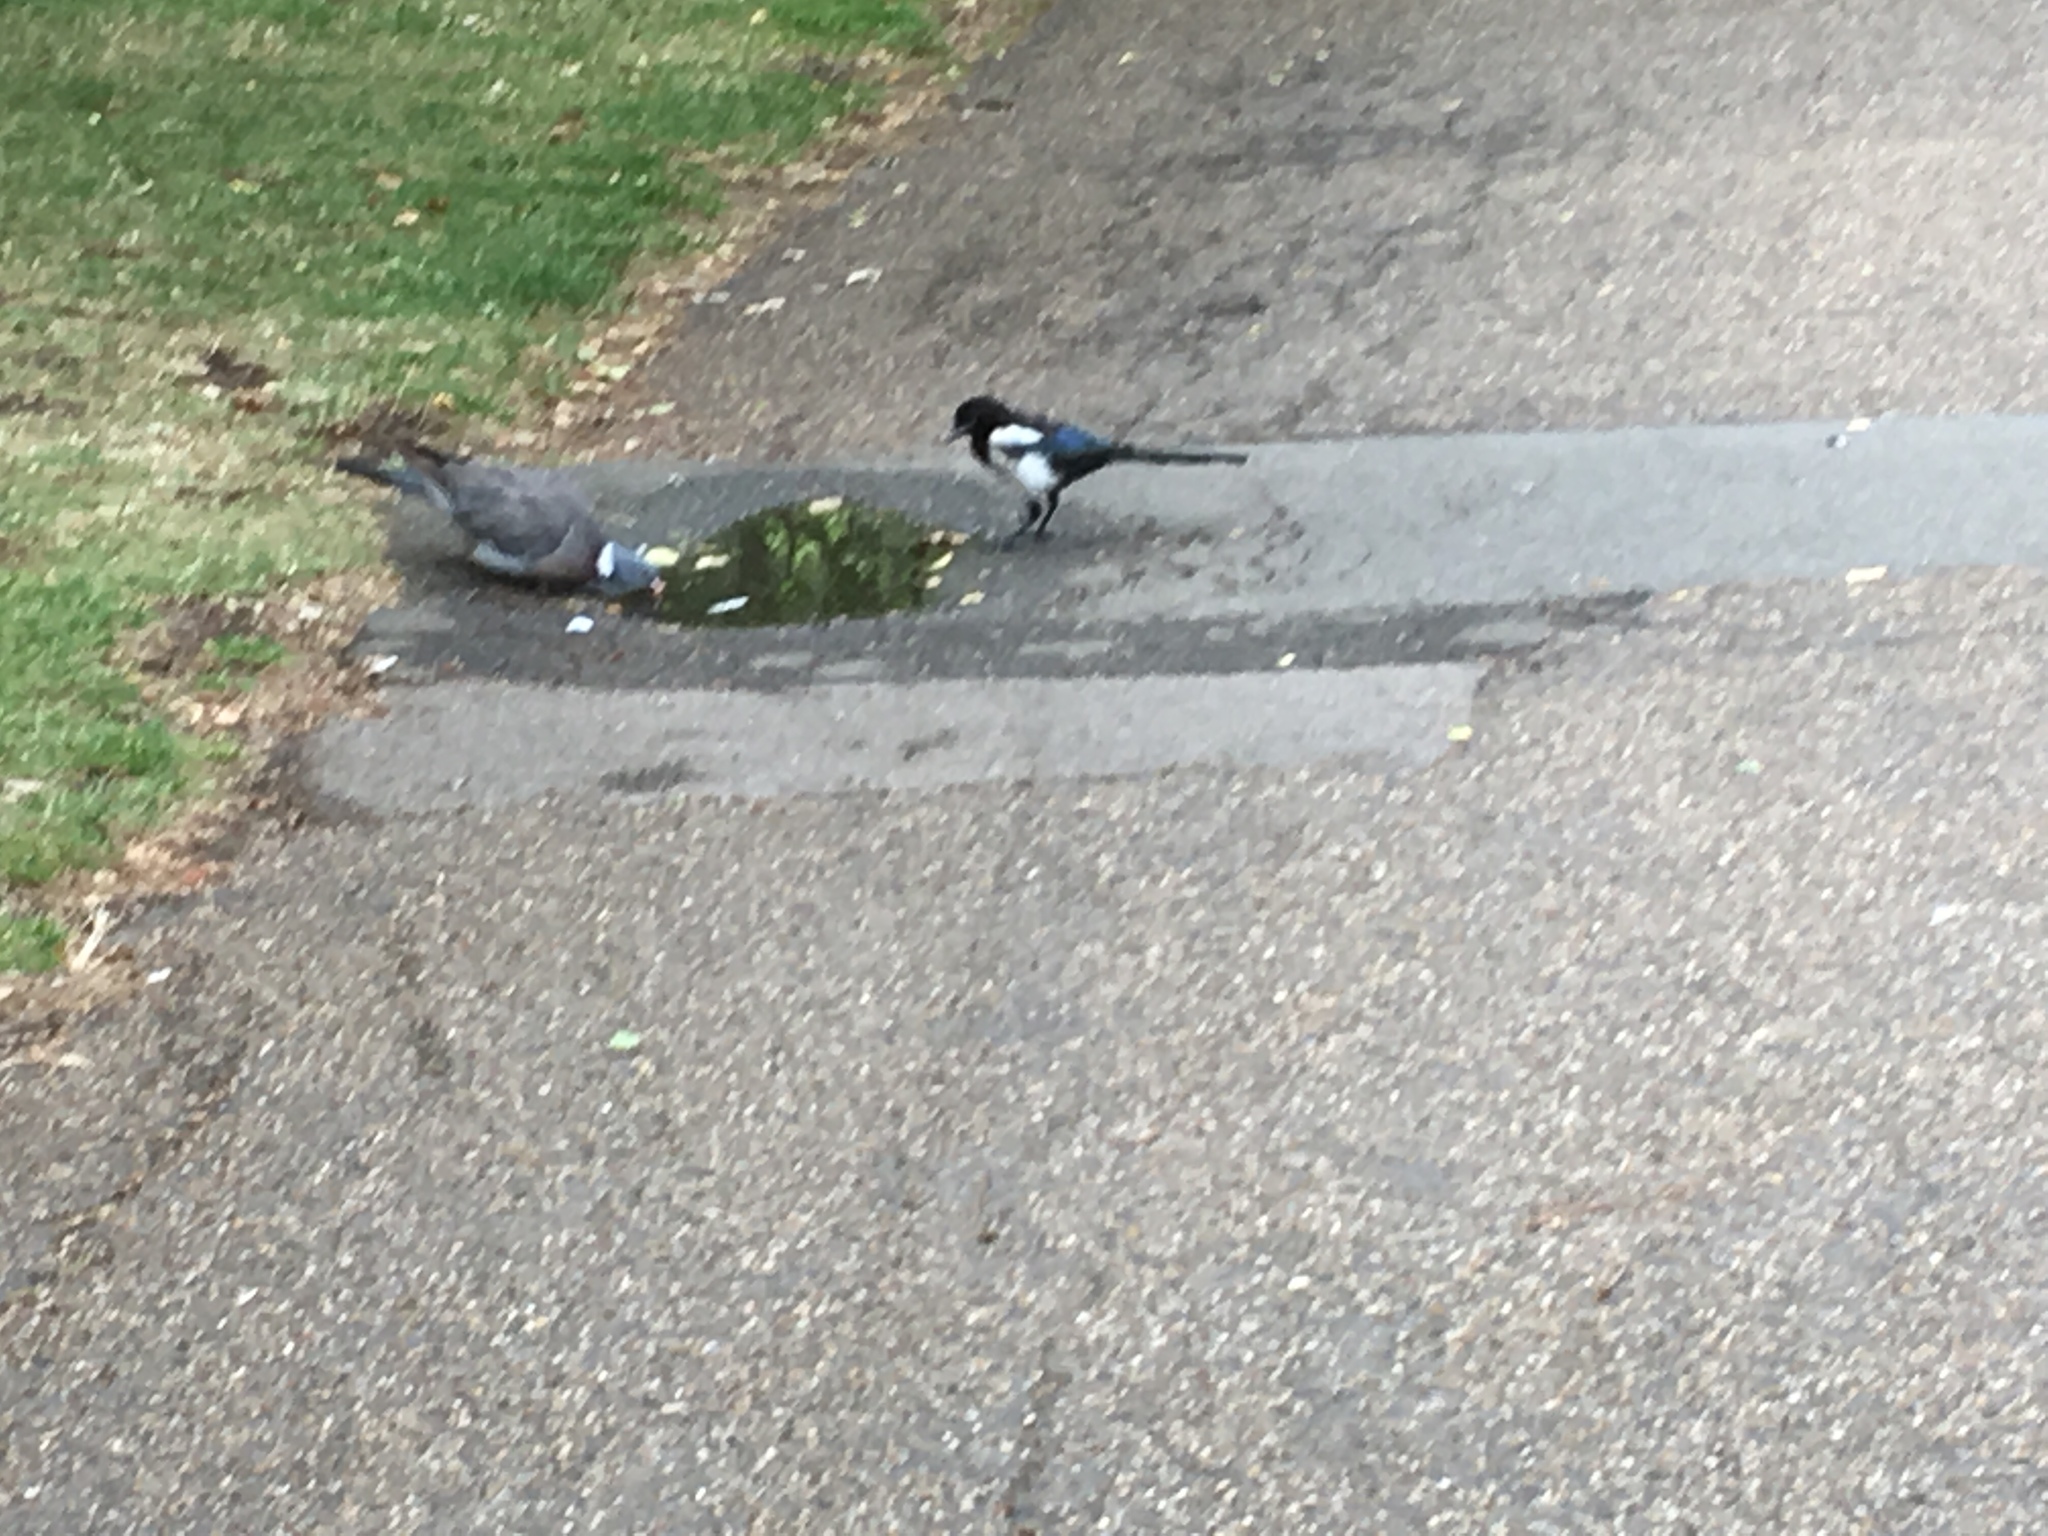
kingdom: Animalia
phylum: Chordata
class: Aves
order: Passeriformes
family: Corvidae
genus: Pica
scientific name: Pica pica
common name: Eurasian magpie
